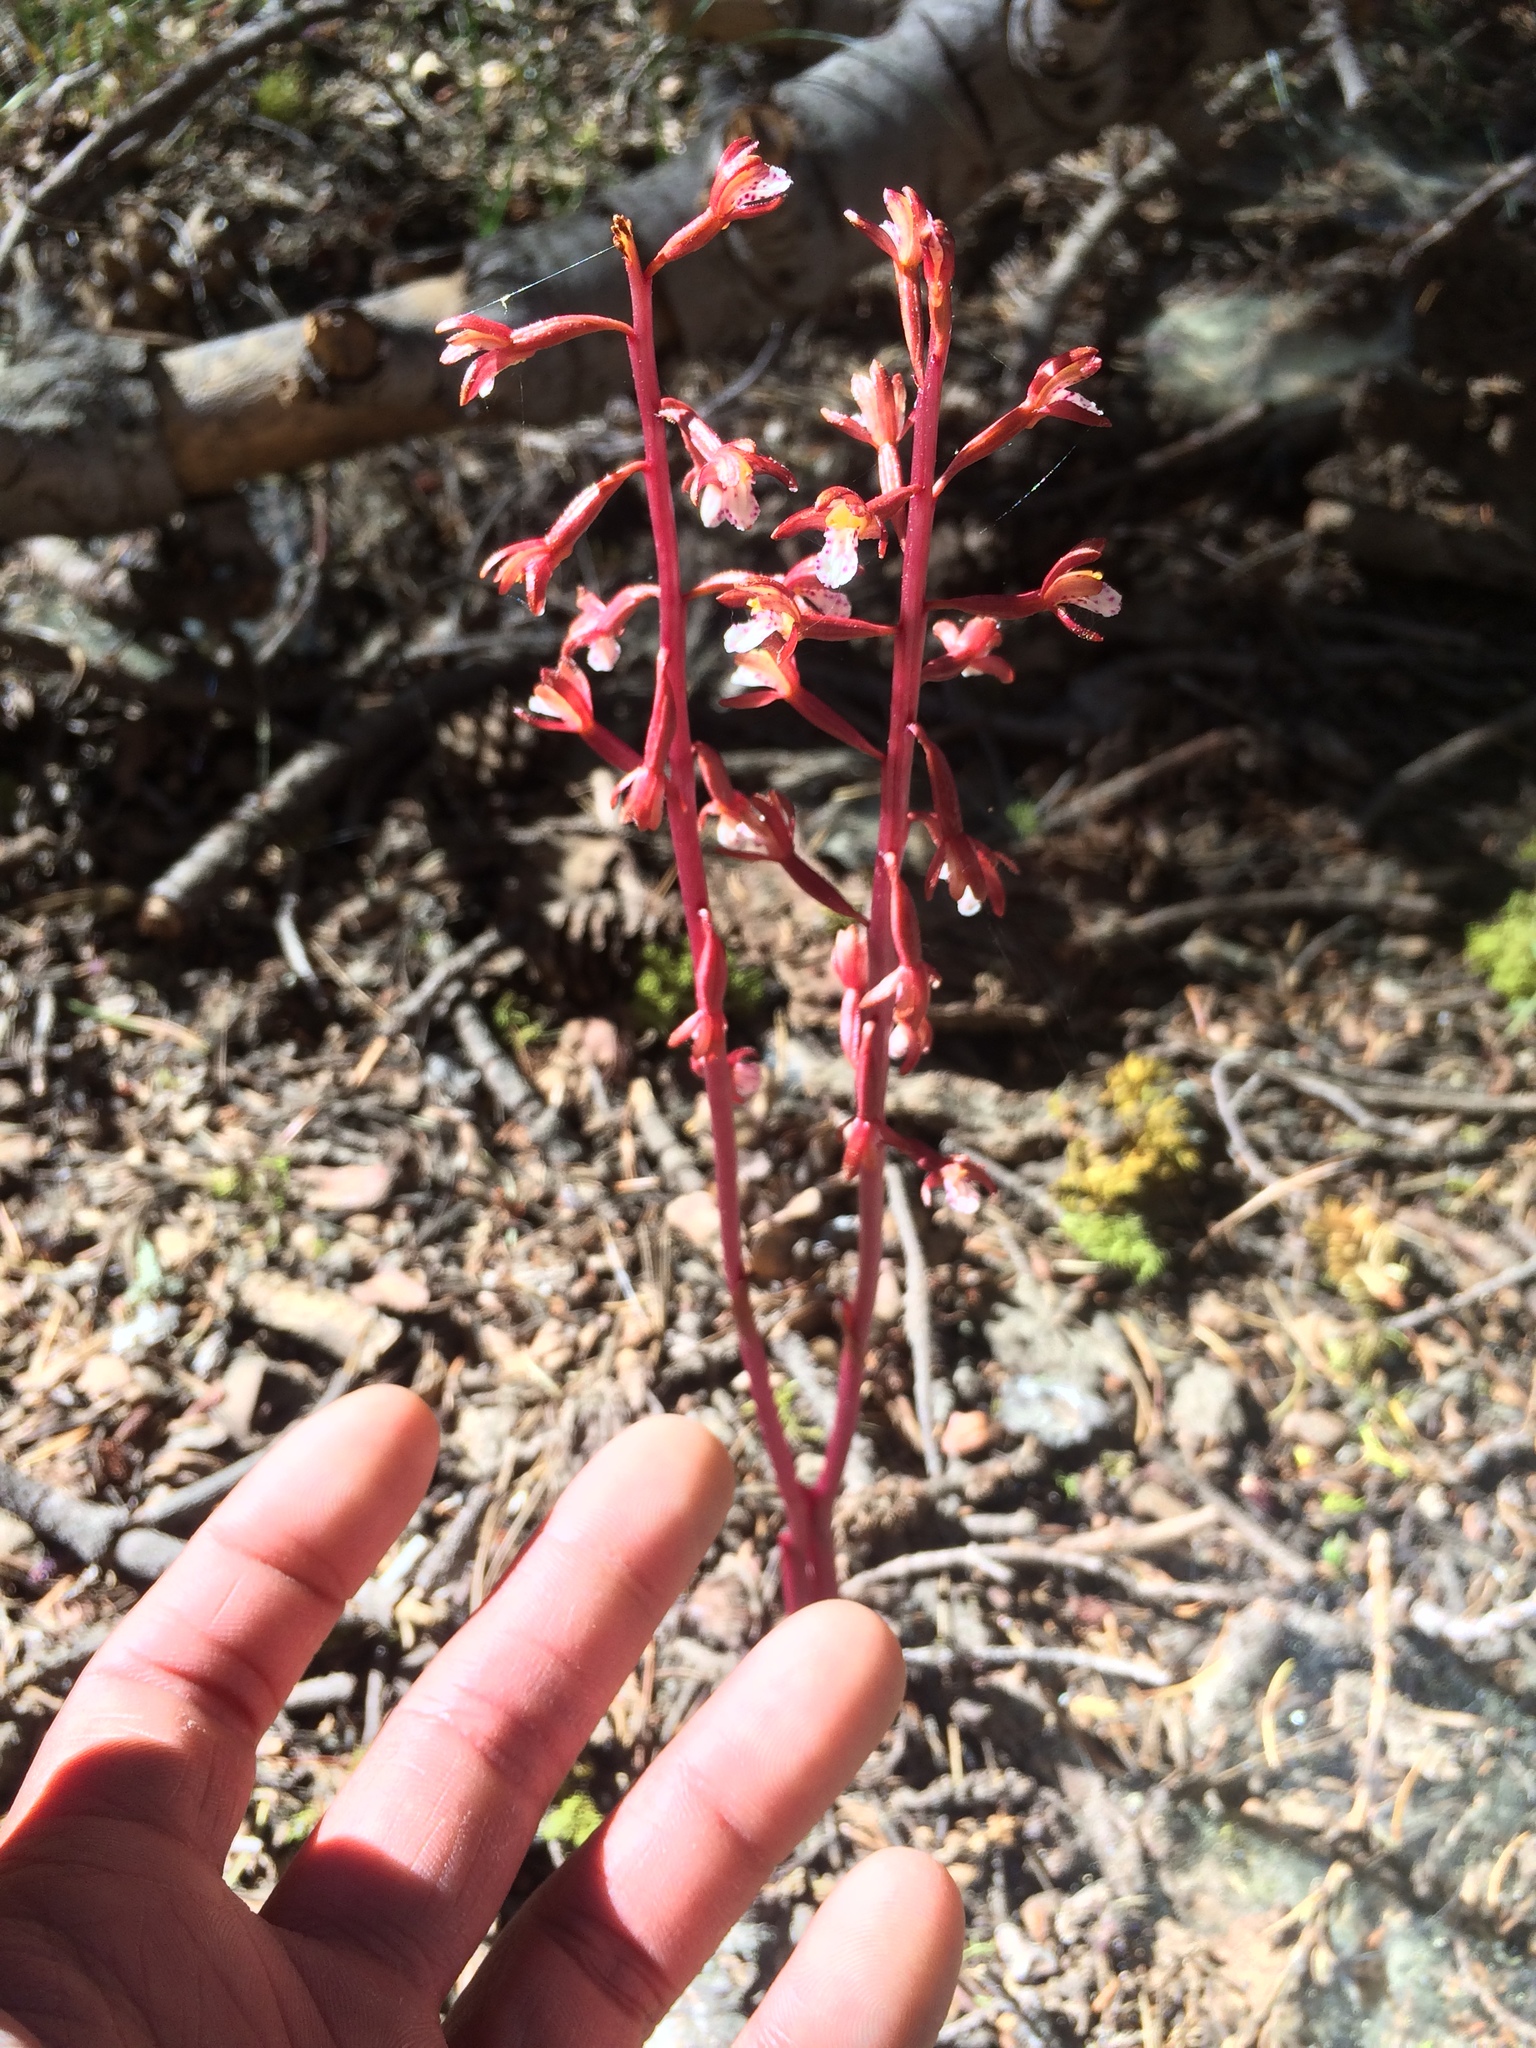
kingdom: Plantae
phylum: Tracheophyta
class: Liliopsida
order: Asparagales
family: Orchidaceae
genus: Corallorhiza
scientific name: Corallorhiza maculata
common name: Spotted coralroot
